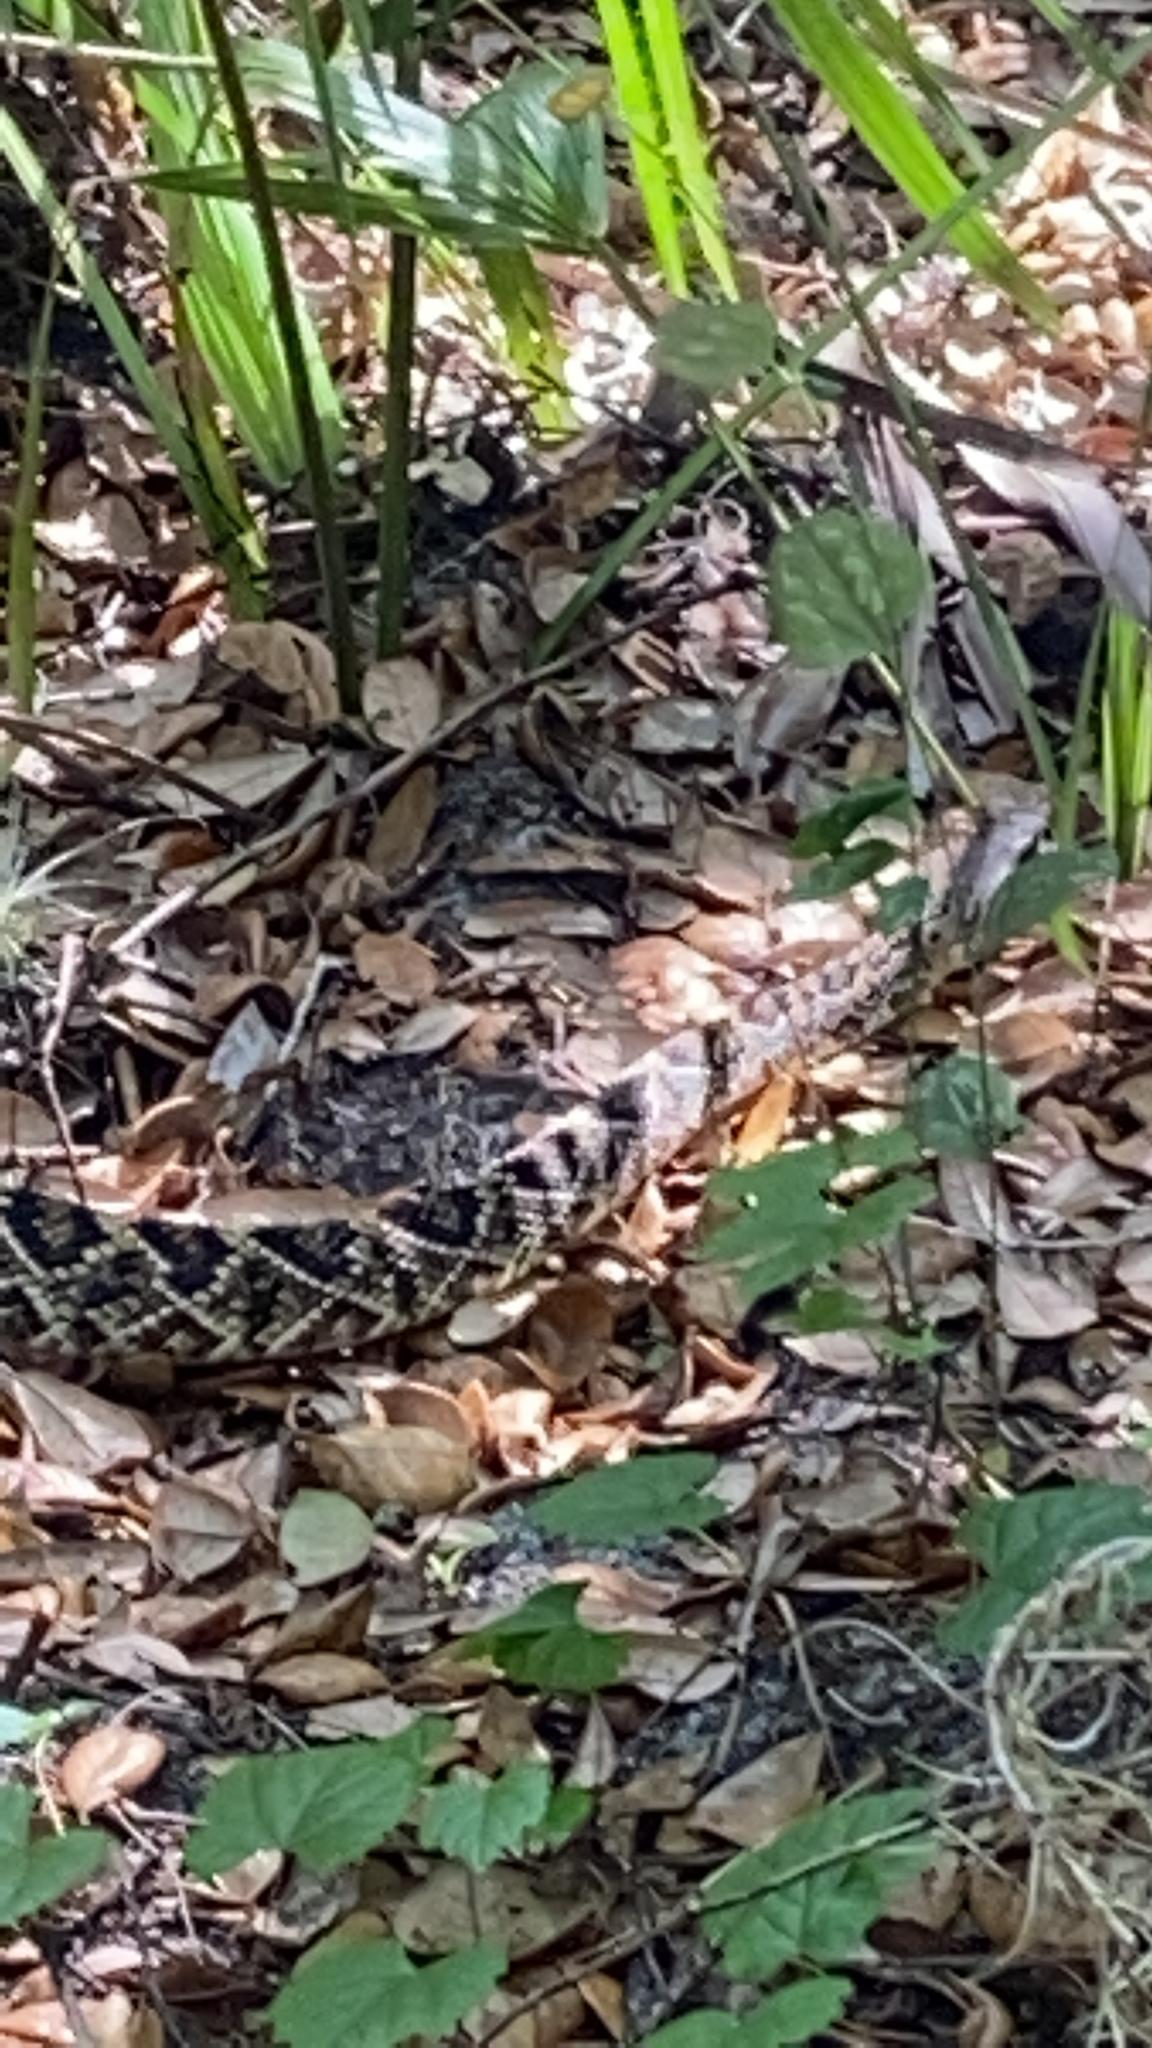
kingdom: Animalia
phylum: Chordata
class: Squamata
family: Viperidae
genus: Crotalus
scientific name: Crotalus adamanteus
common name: Eastern diamondback rattlesnake
